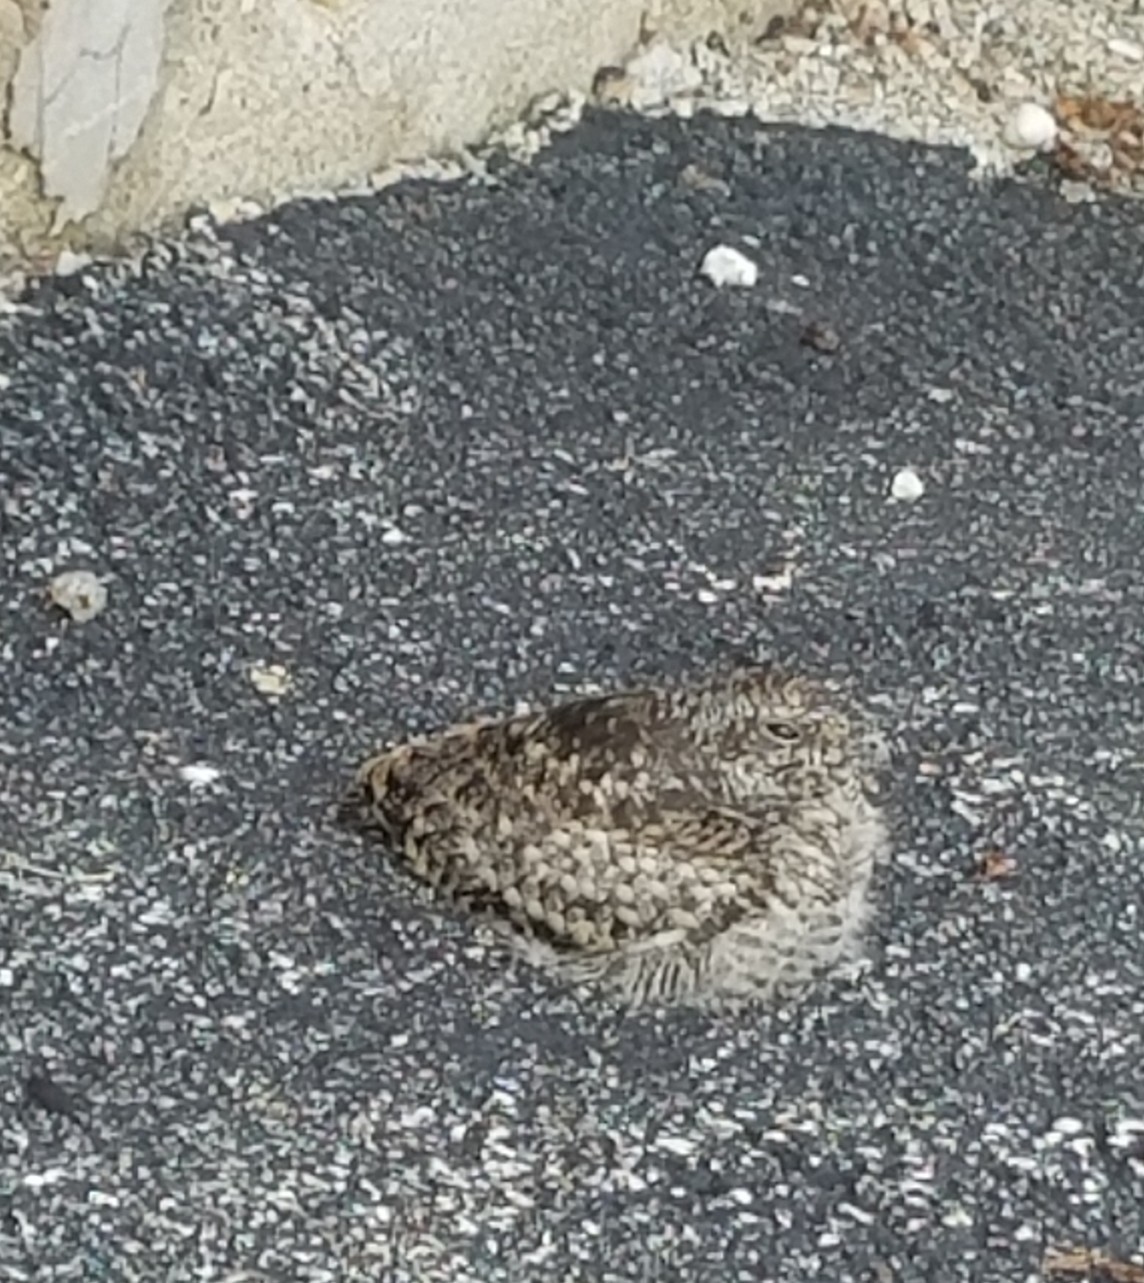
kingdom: Animalia
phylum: Chordata
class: Aves
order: Caprimulgiformes
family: Caprimulgidae
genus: Chordeiles
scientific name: Chordeiles minor
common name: Common nighthawk
